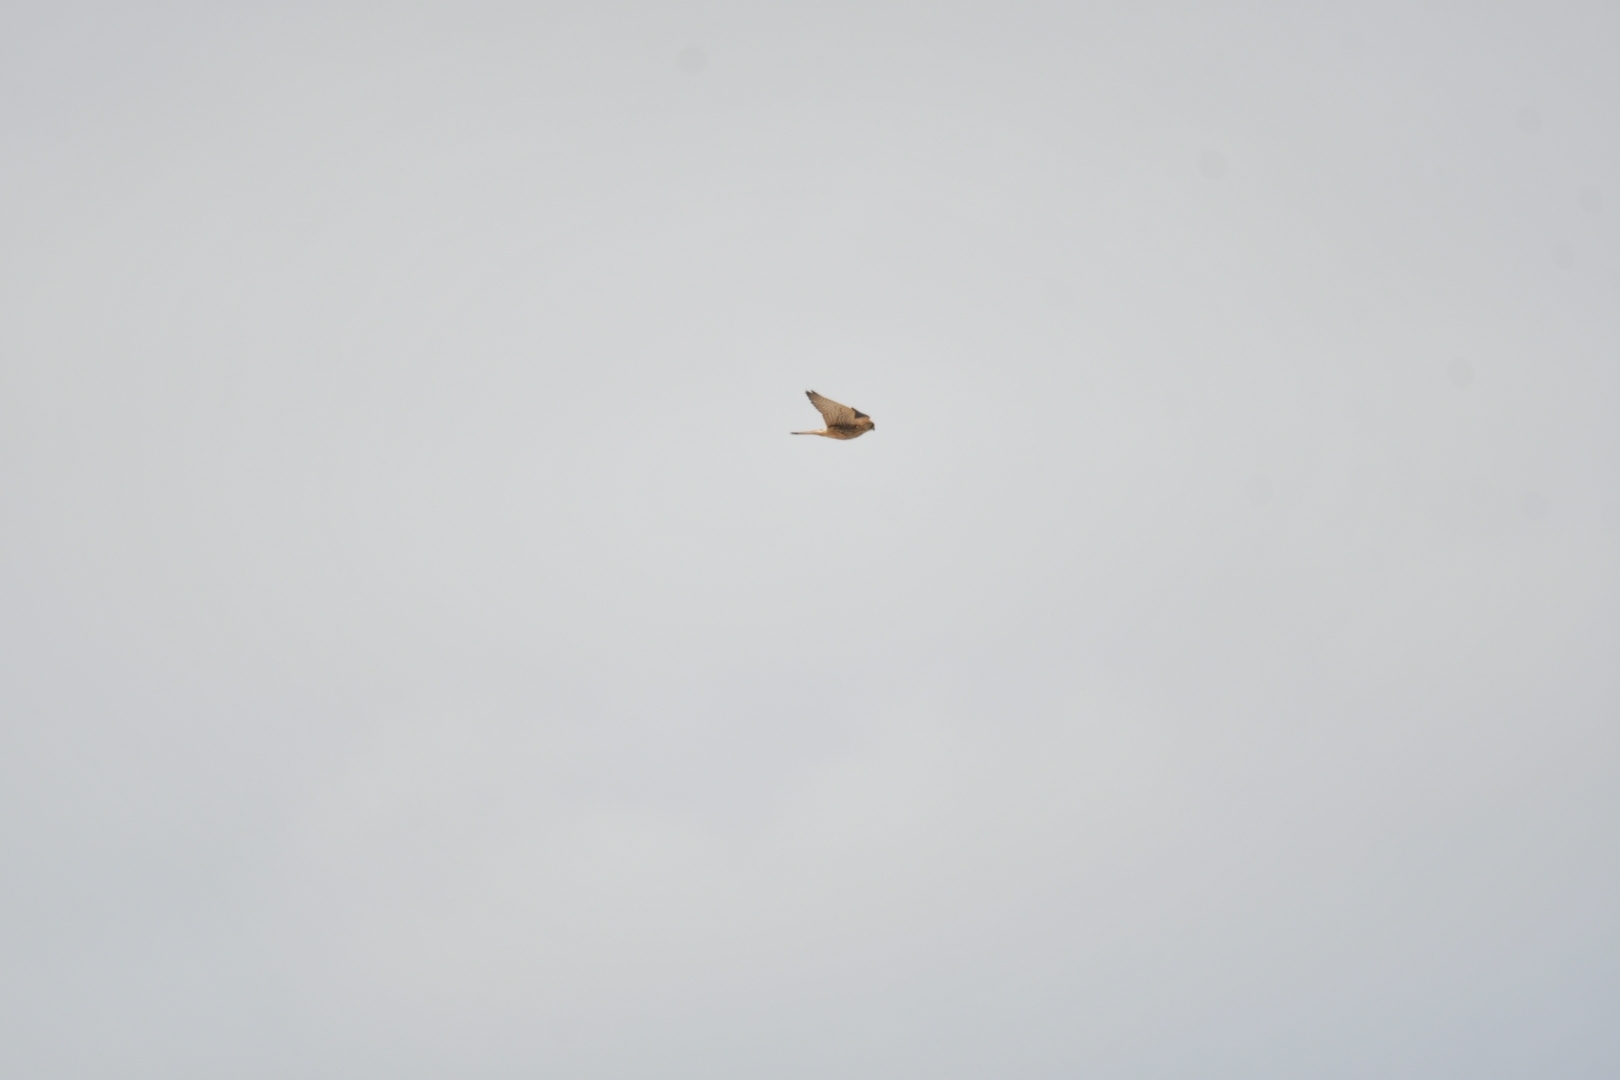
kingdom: Animalia
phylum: Chordata
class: Aves
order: Falconiformes
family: Falconidae
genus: Falco
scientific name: Falco tinnunculus
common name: Common kestrel
